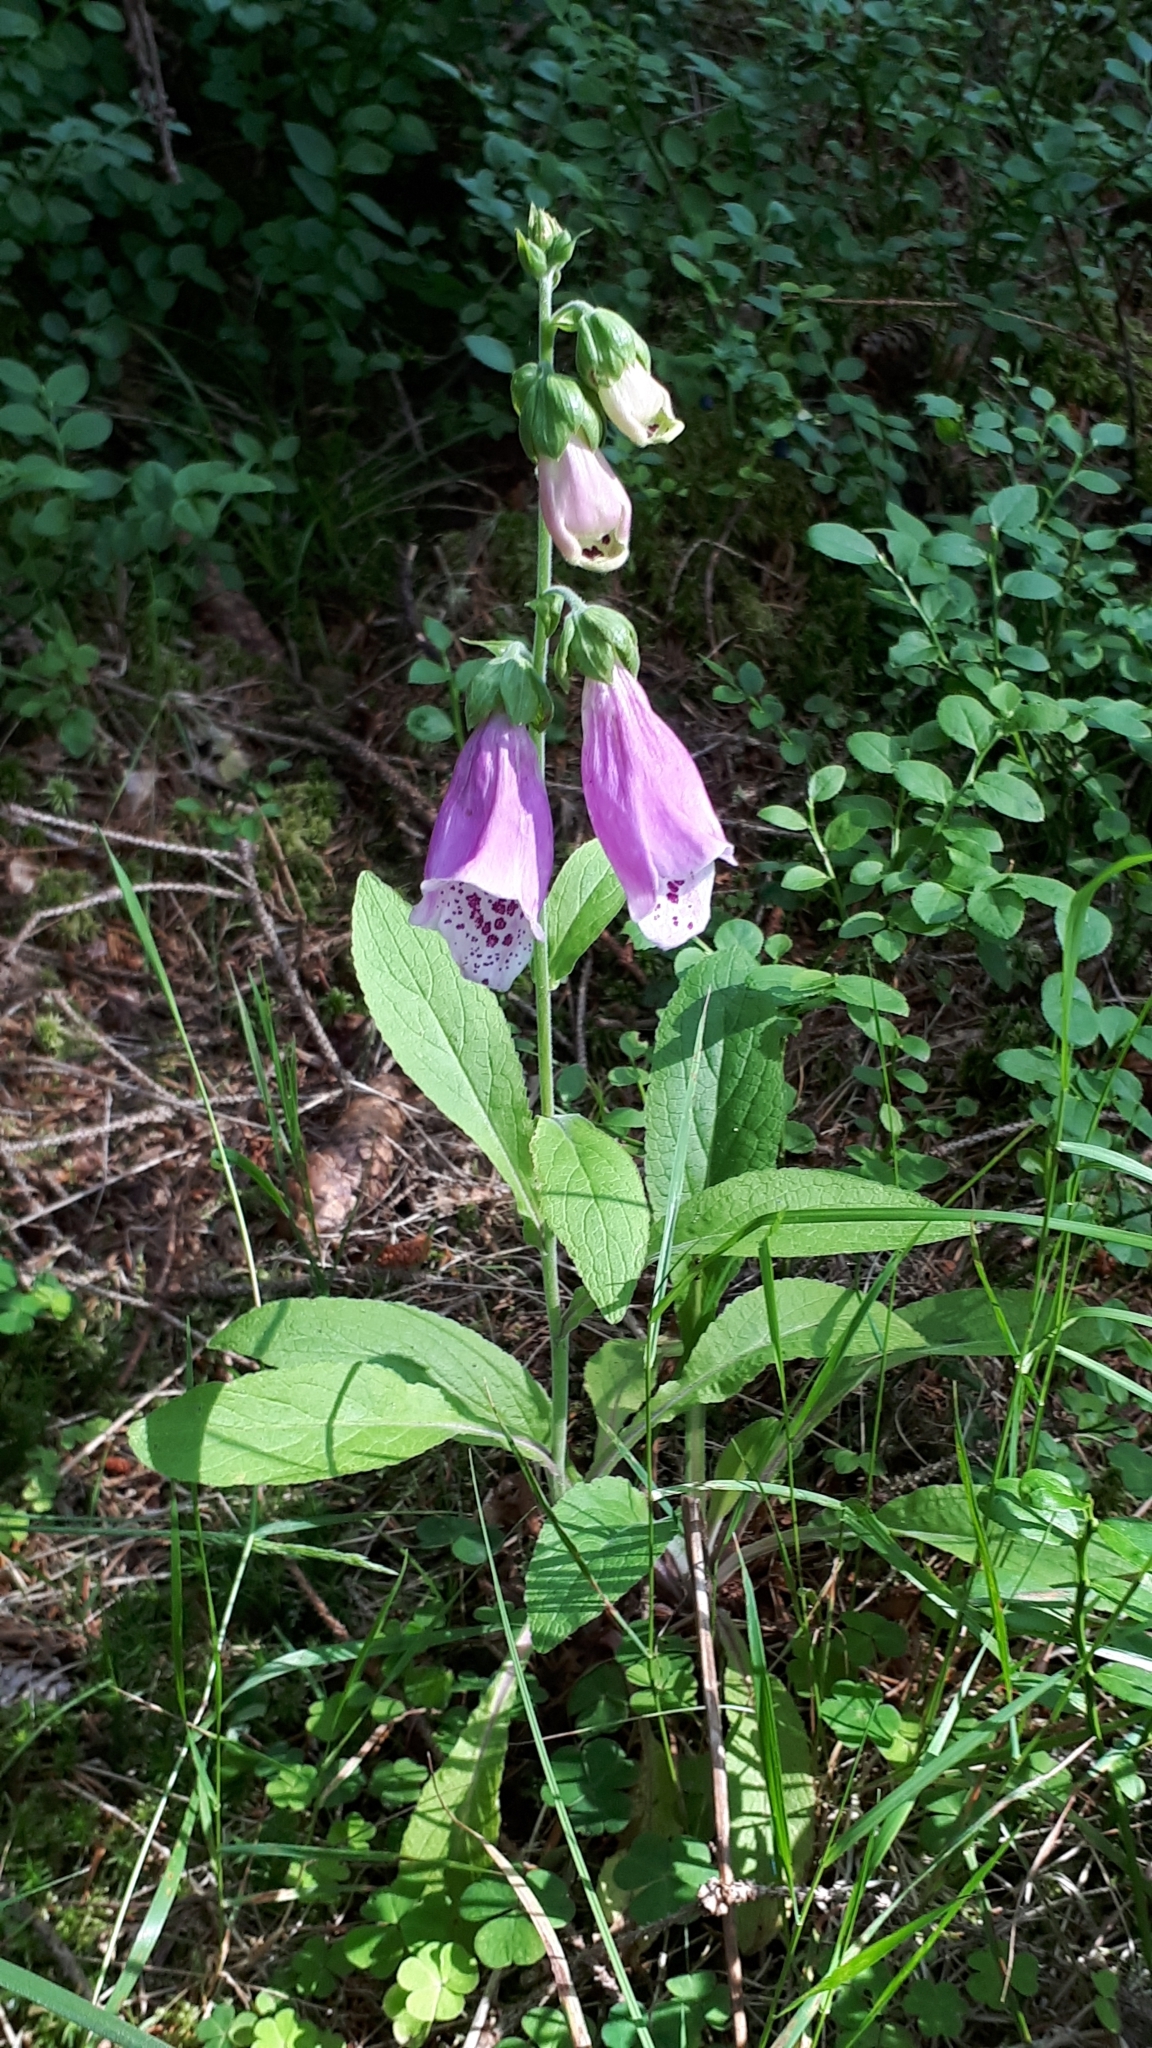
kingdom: Plantae
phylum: Tracheophyta
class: Magnoliopsida
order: Lamiales
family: Plantaginaceae
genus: Digitalis
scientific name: Digitalis purpurea
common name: Foxglove
